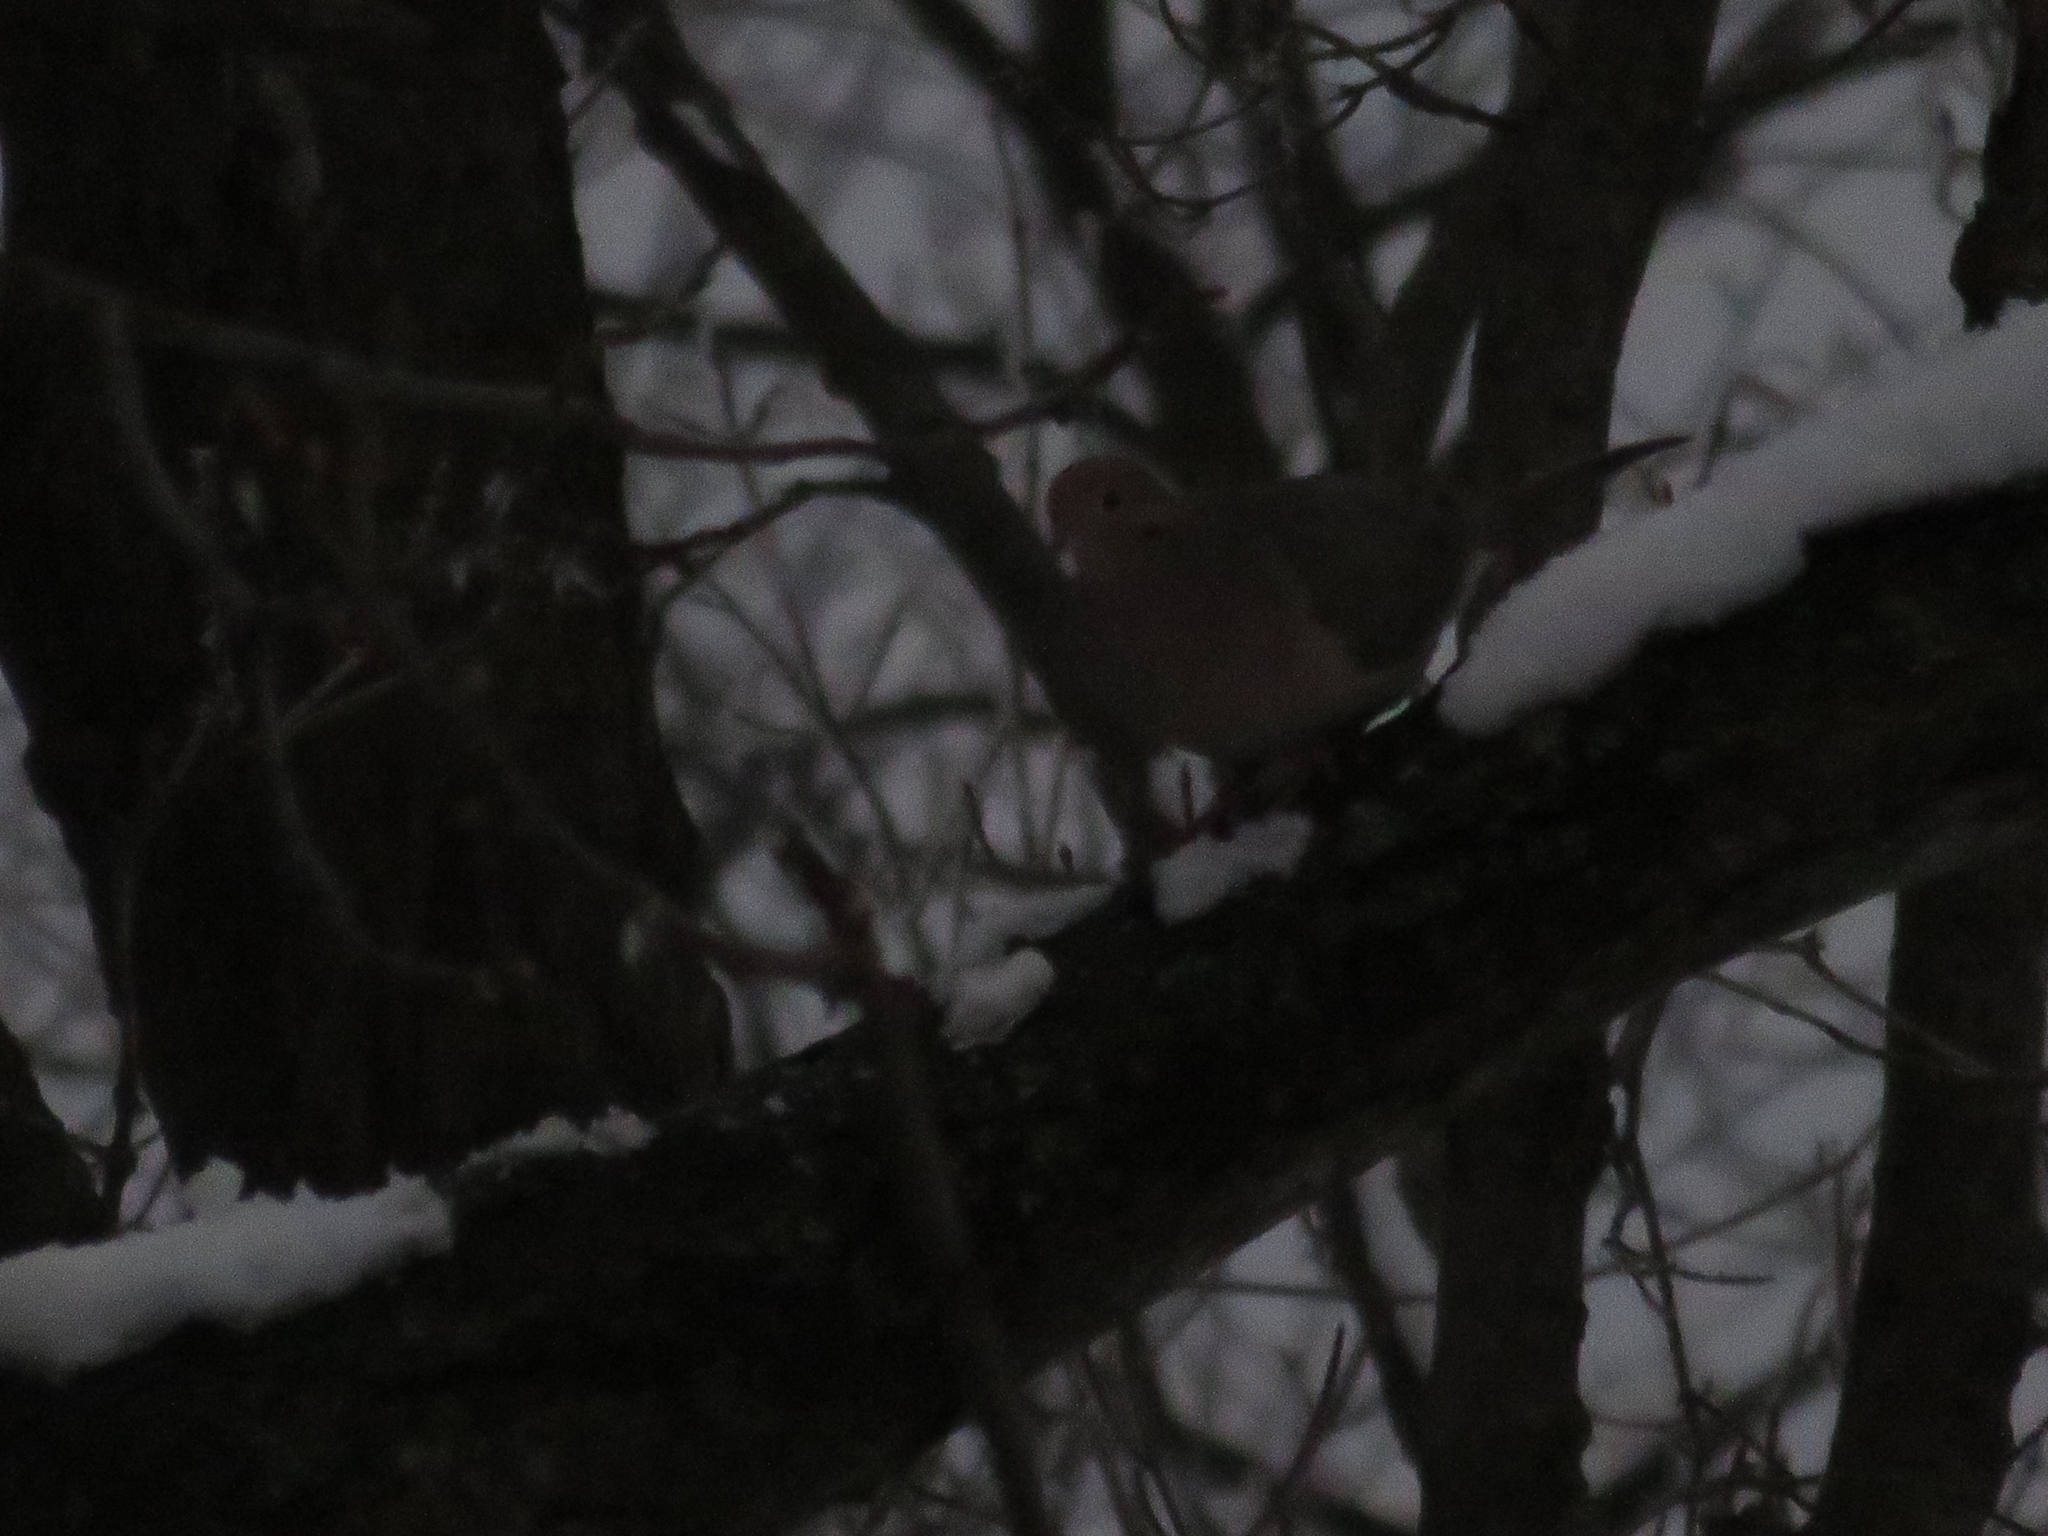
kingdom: Animalia
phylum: Chordata
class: Aves
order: Columbiformes
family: Columbidae
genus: Zenaida
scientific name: Zenaida macroura
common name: Mourning dove
